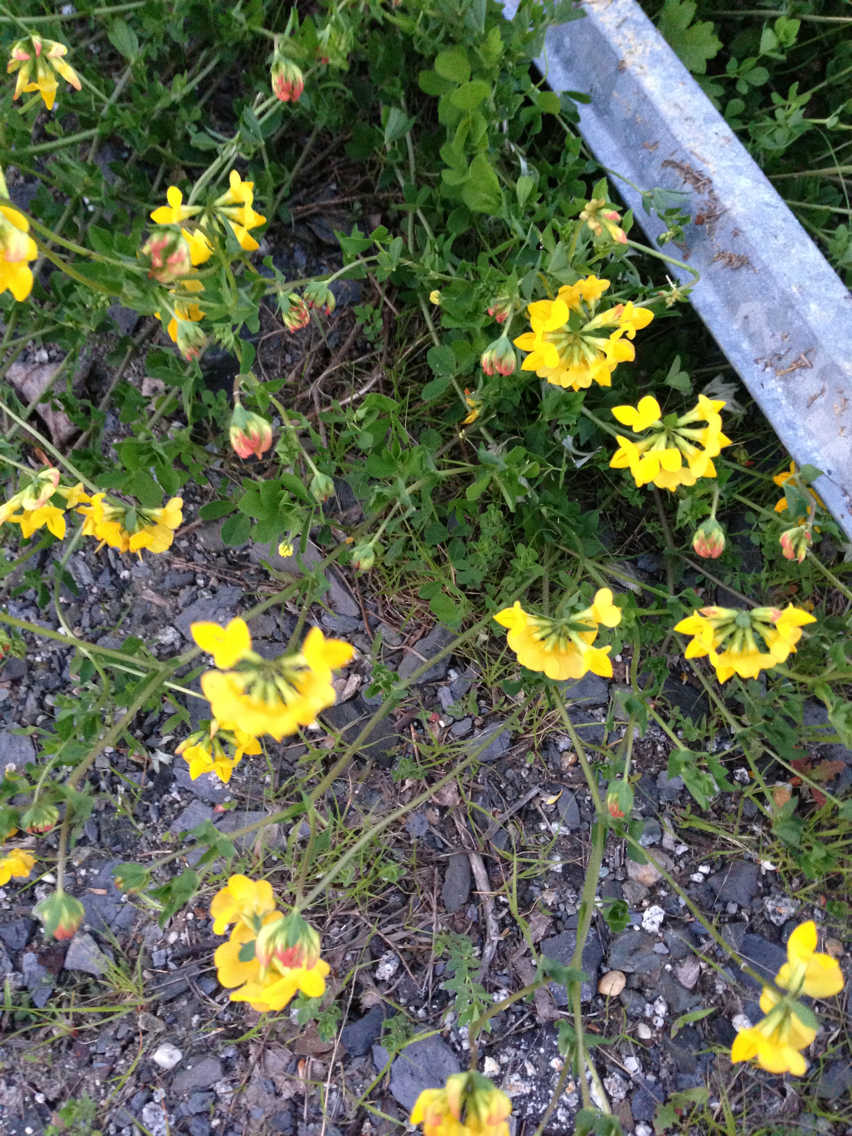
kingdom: Plantae
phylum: Tracheophyta
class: Magnoliopsida
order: Fabales
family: Fabaceae
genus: Lotus
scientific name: Lotus corniculatus
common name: Common bird's-foot-trefoil
